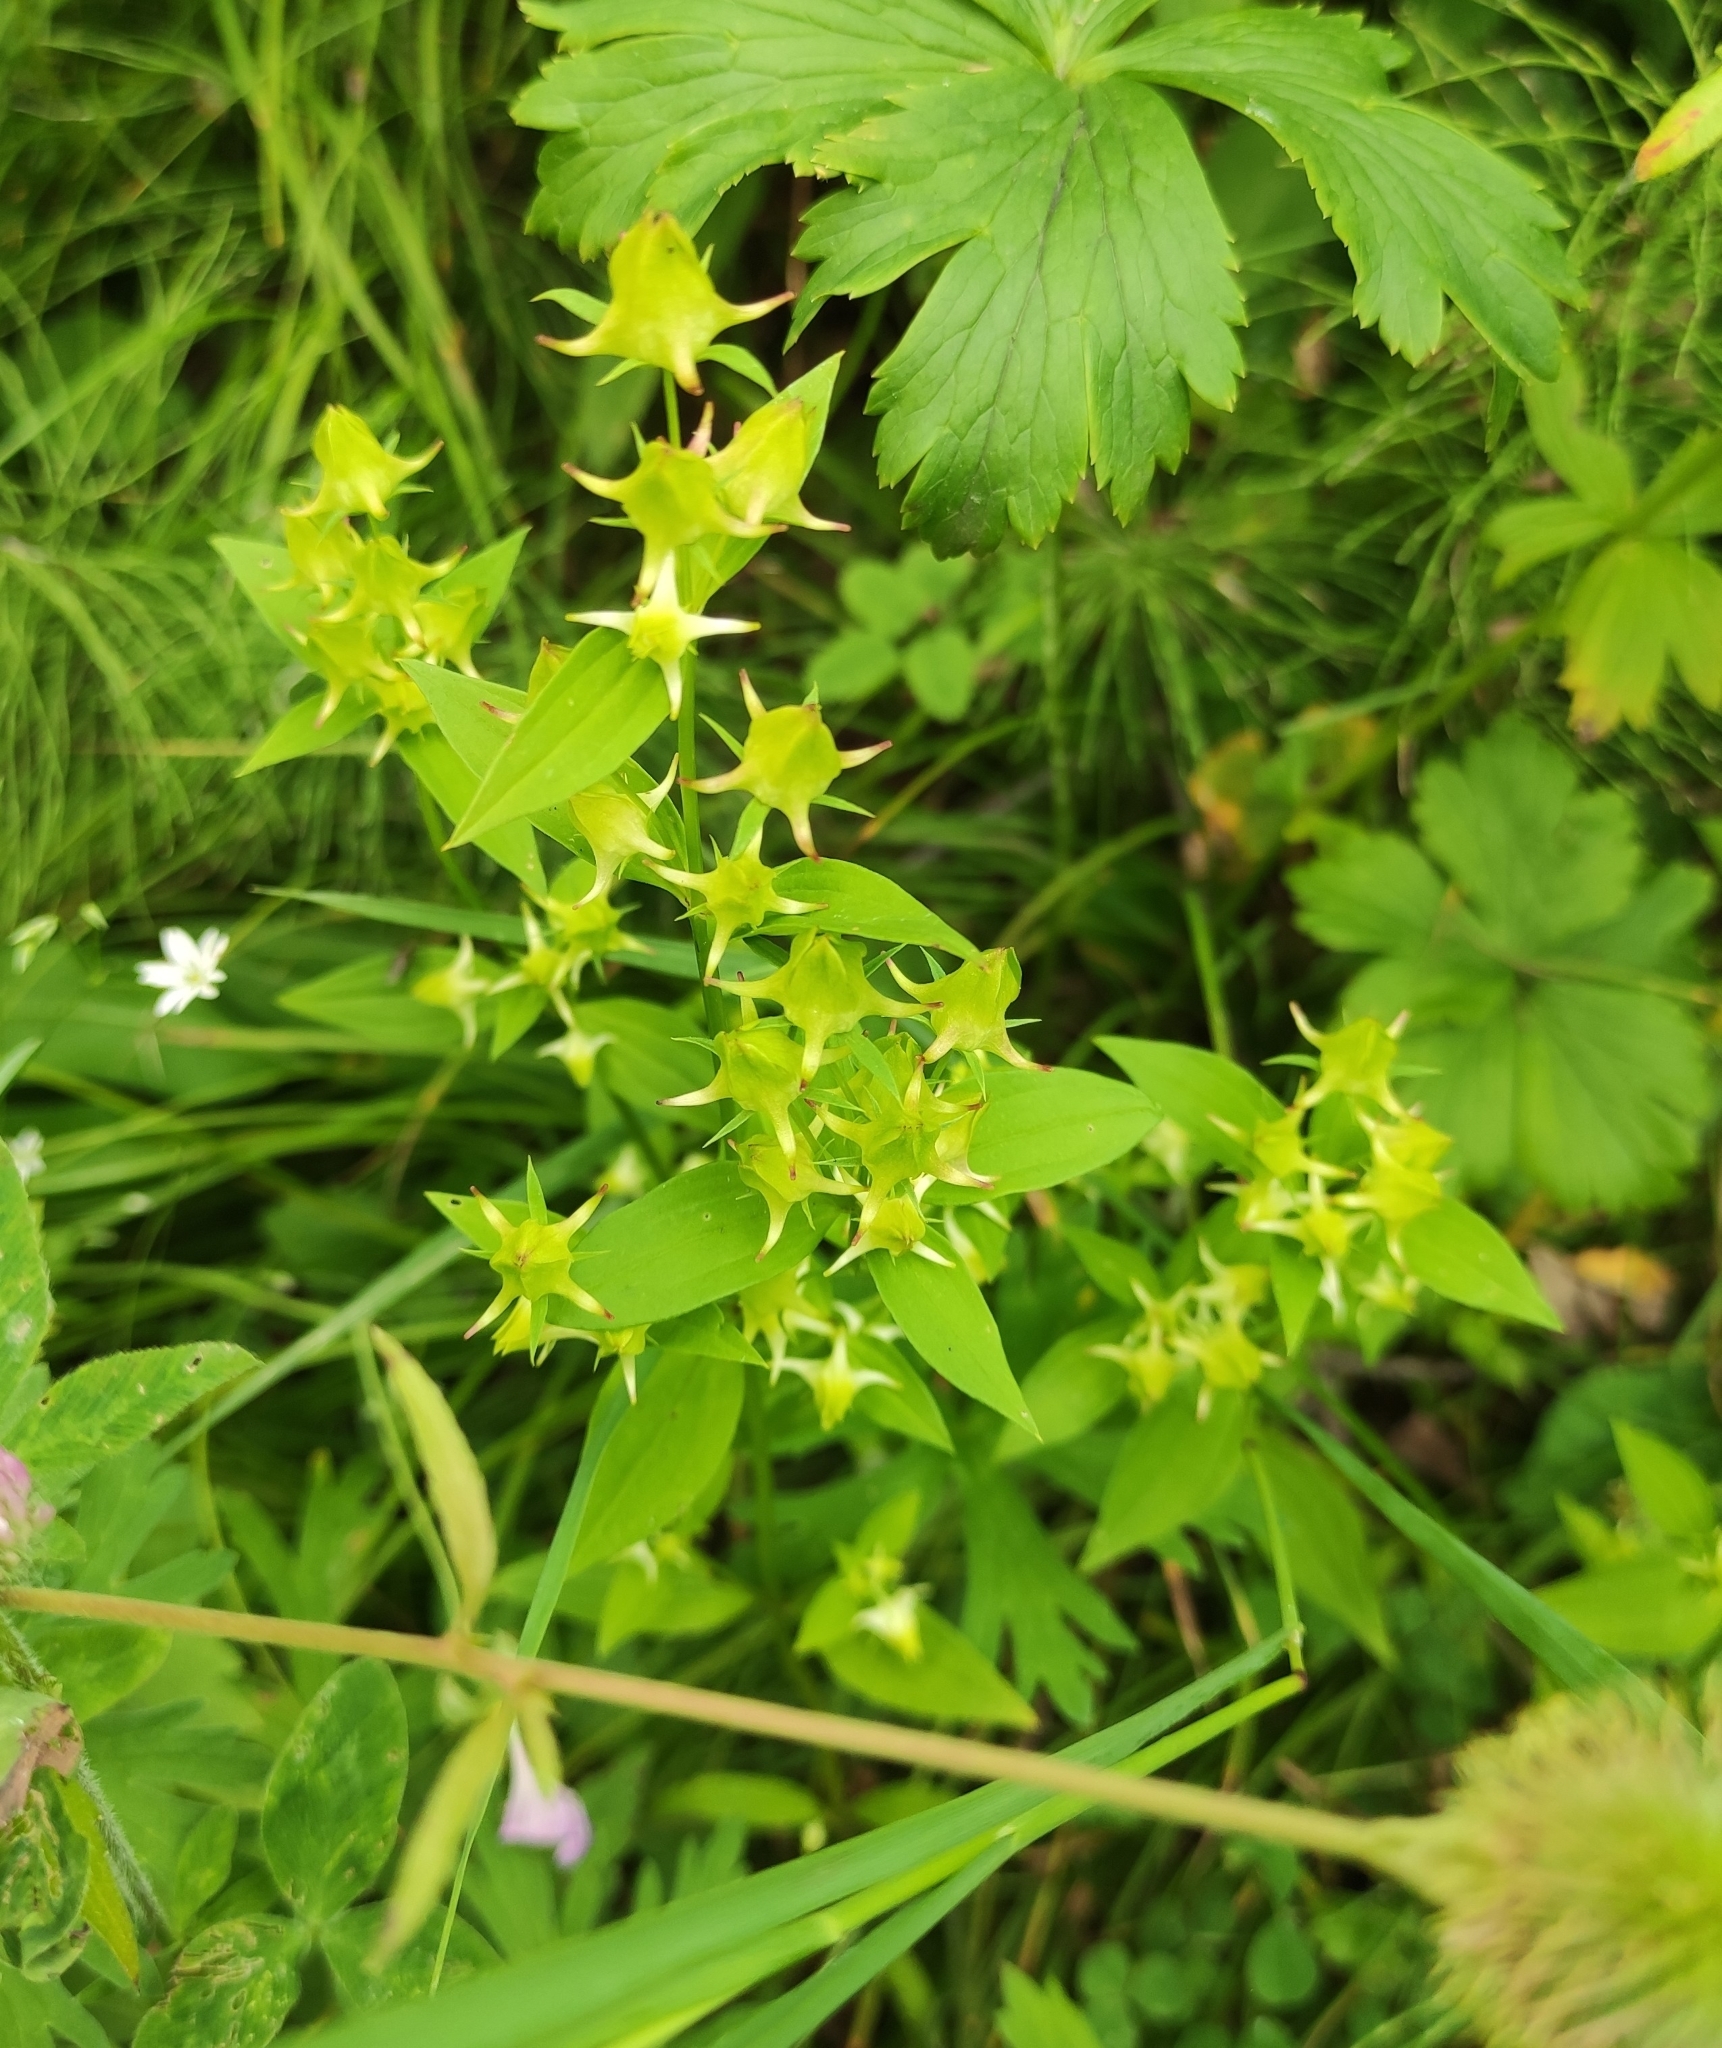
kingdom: Plantae
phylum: Tracheophyta
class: Magnoliopsida
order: Gentianales
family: Gentianaceae
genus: Halenia
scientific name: Halenia corniculata
